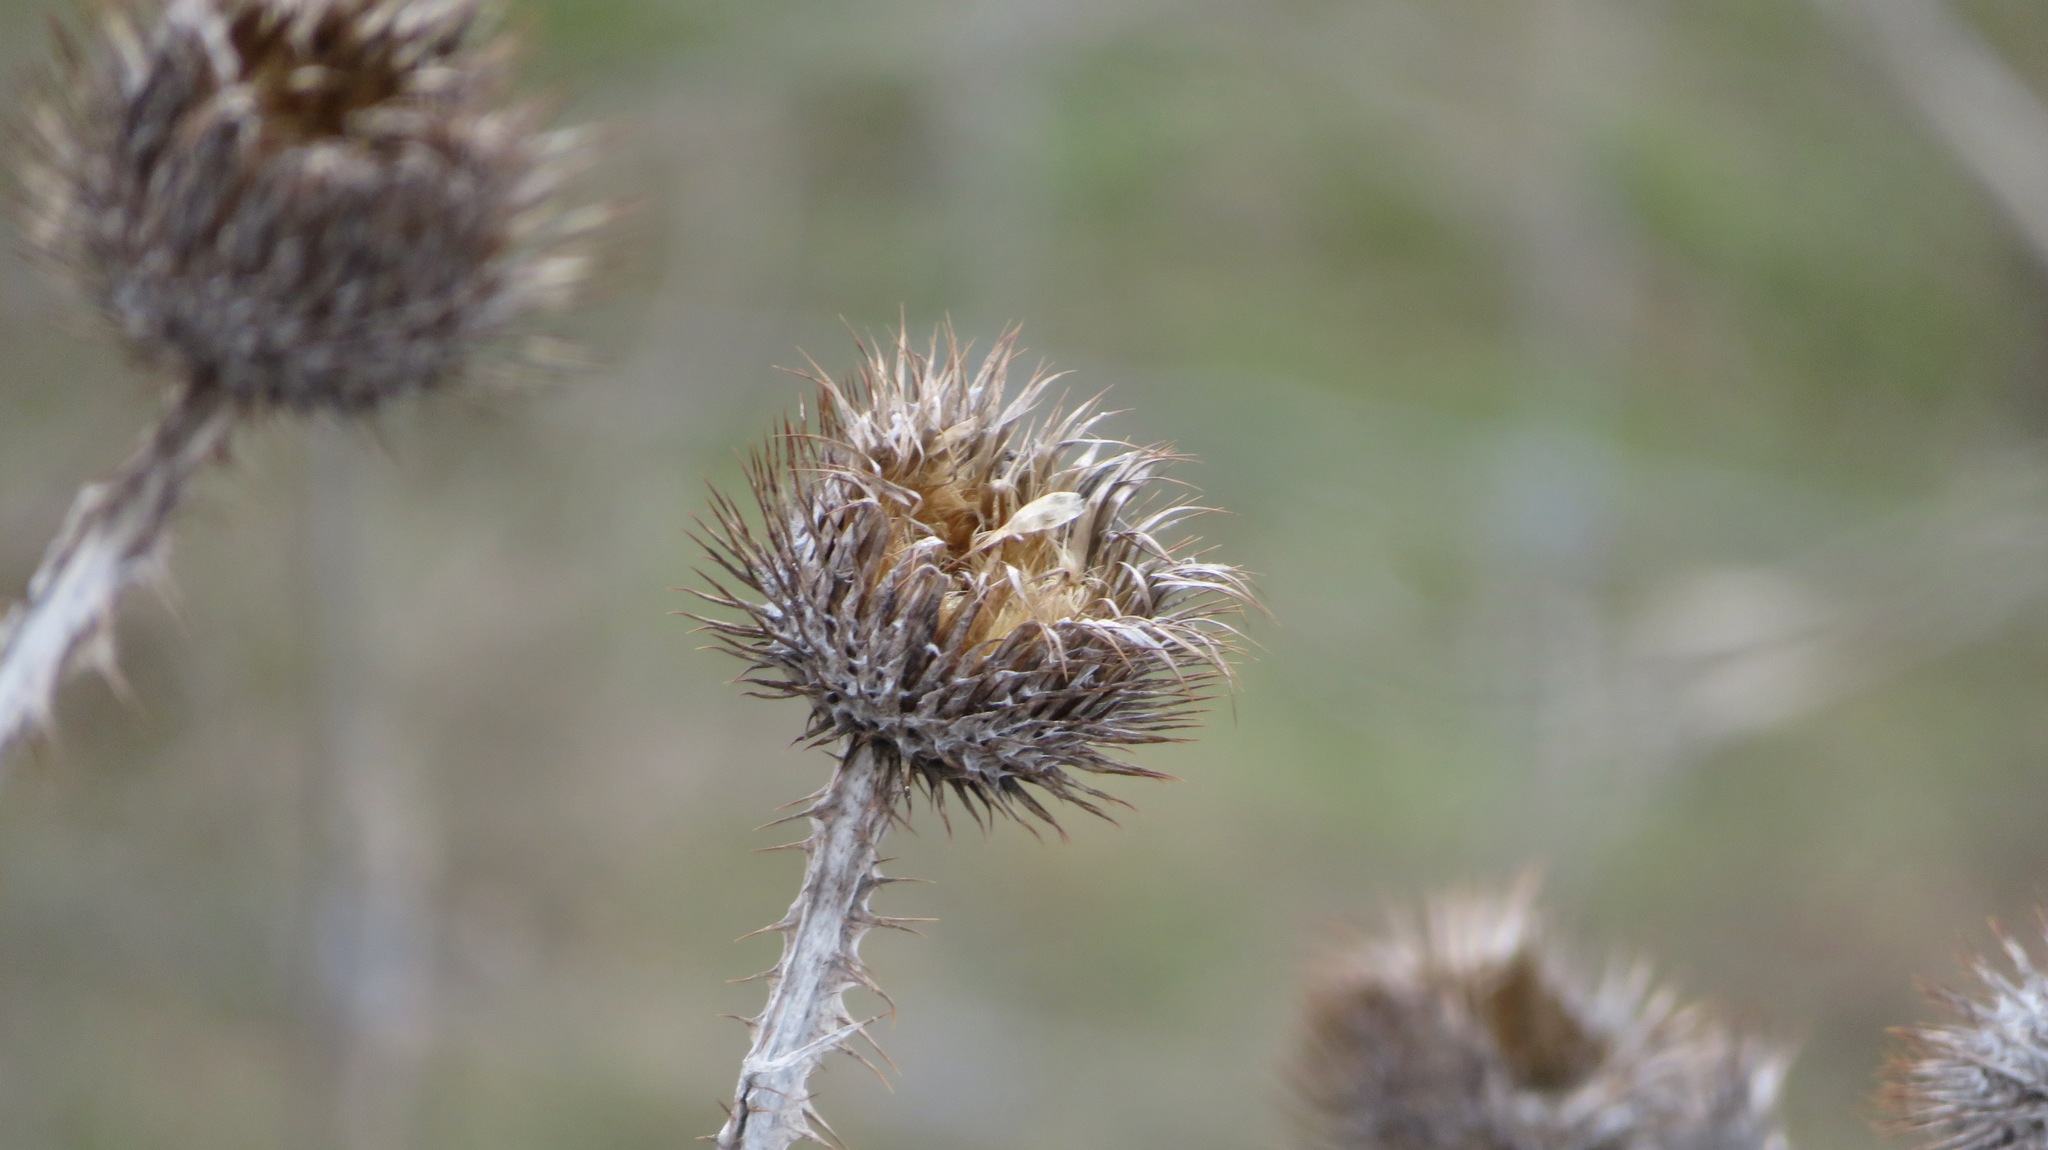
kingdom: Plantae
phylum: Tracheophyta
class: Magnoliopsida
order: Asterales
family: Asteraceae
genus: Onopordum
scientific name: Onopordum acanthium
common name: Scotch thistle
